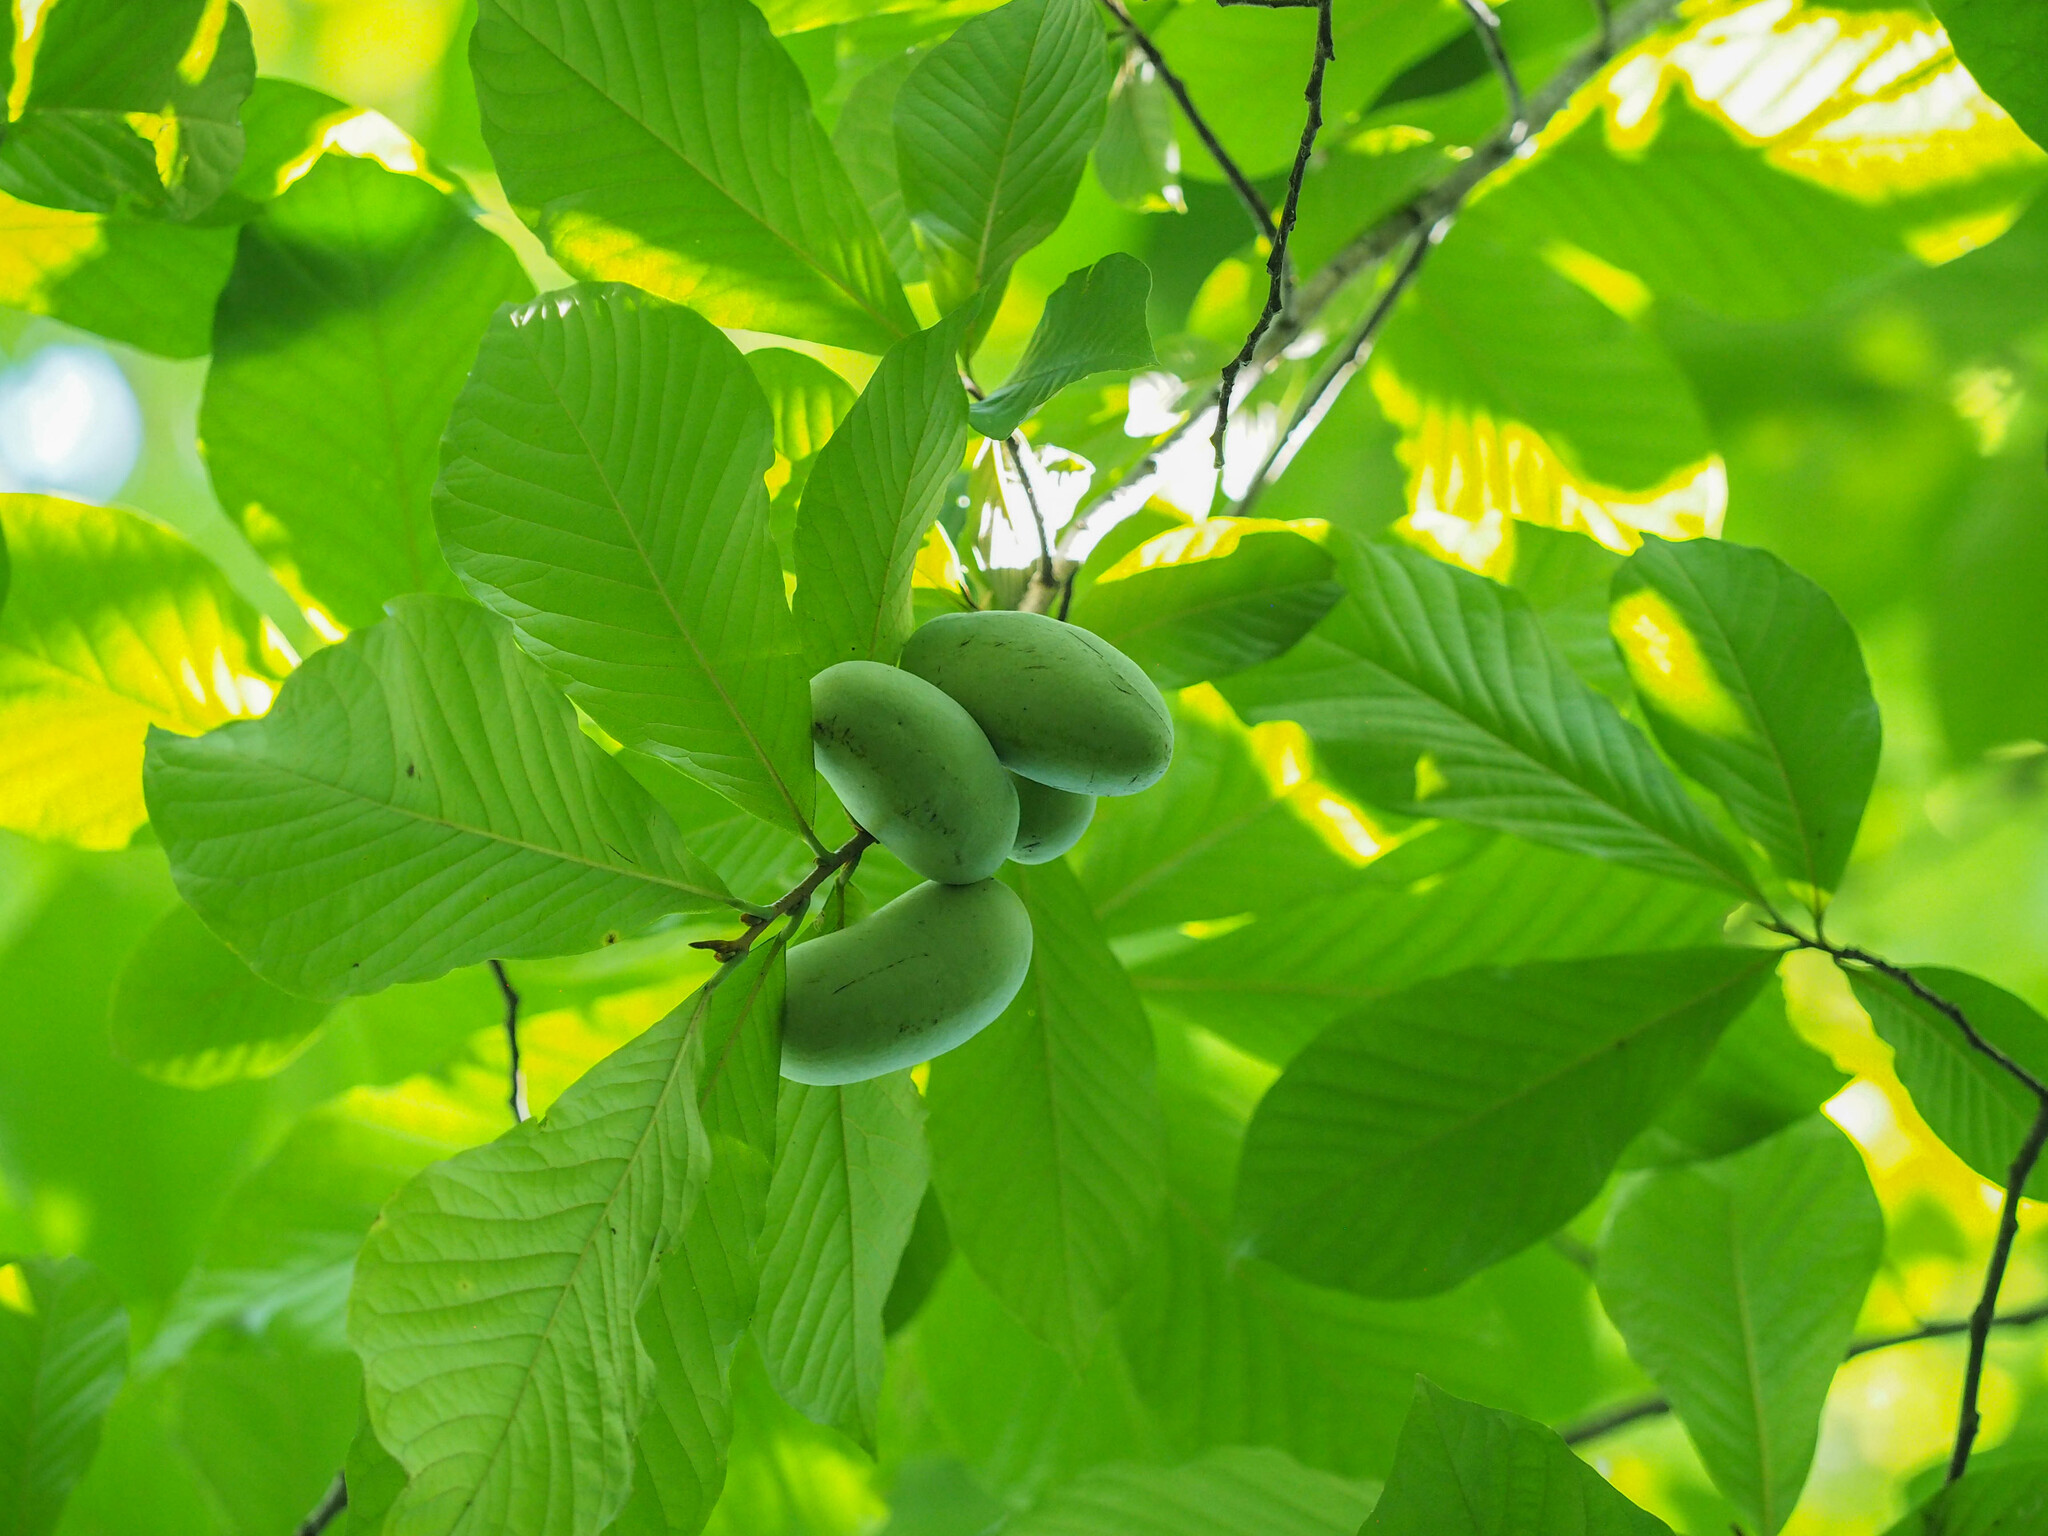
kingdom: Plantae
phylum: Tracheophyta
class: Magnoliopsida
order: Magnoliales
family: Annonaceae
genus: Asimina
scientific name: Asimina triloba
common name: Dog-banana
